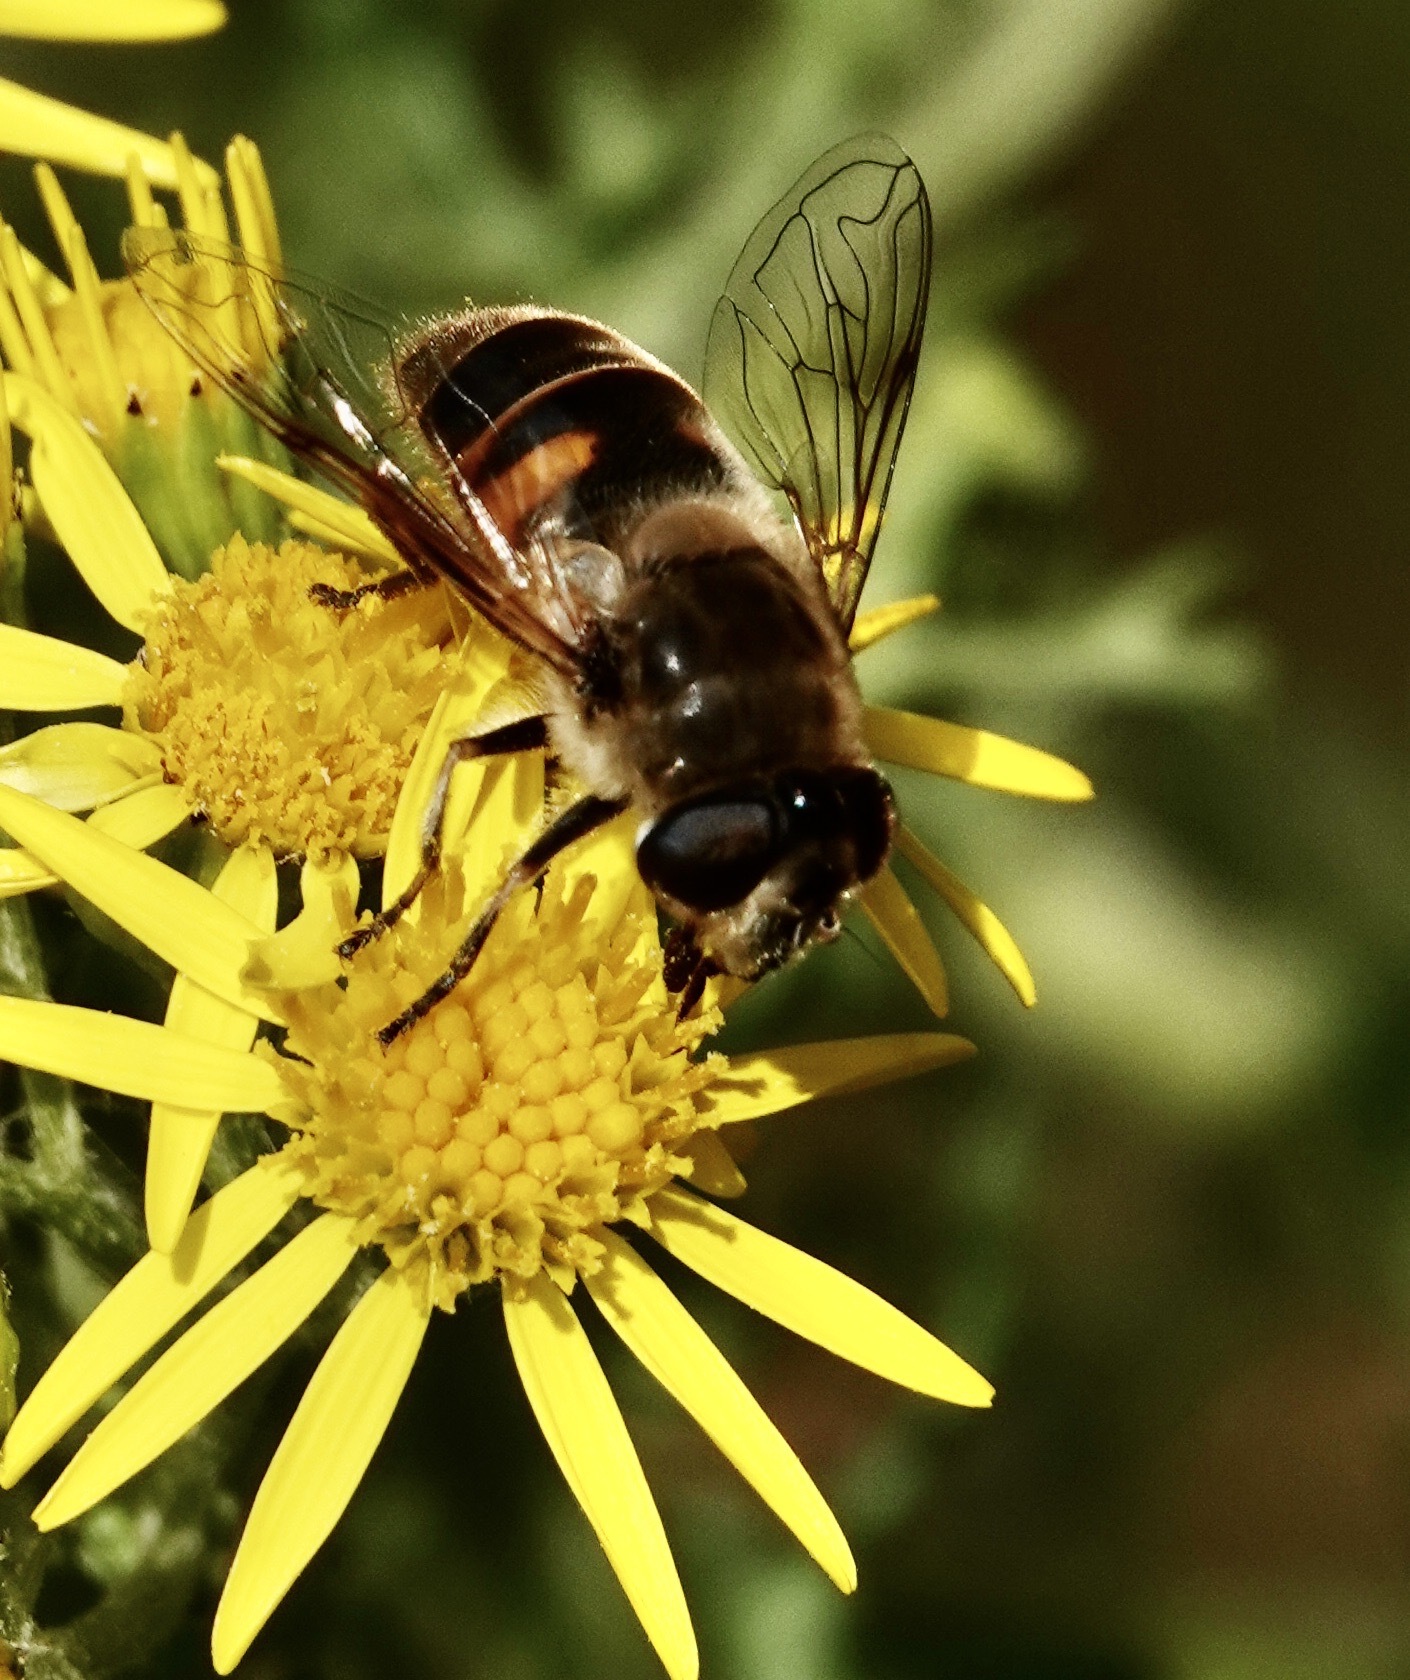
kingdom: Animalia
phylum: Arthropoda
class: Insecta
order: Diptera
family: Syrphidae
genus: Eristalis
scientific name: Eristalis tenax
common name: Drone fly
